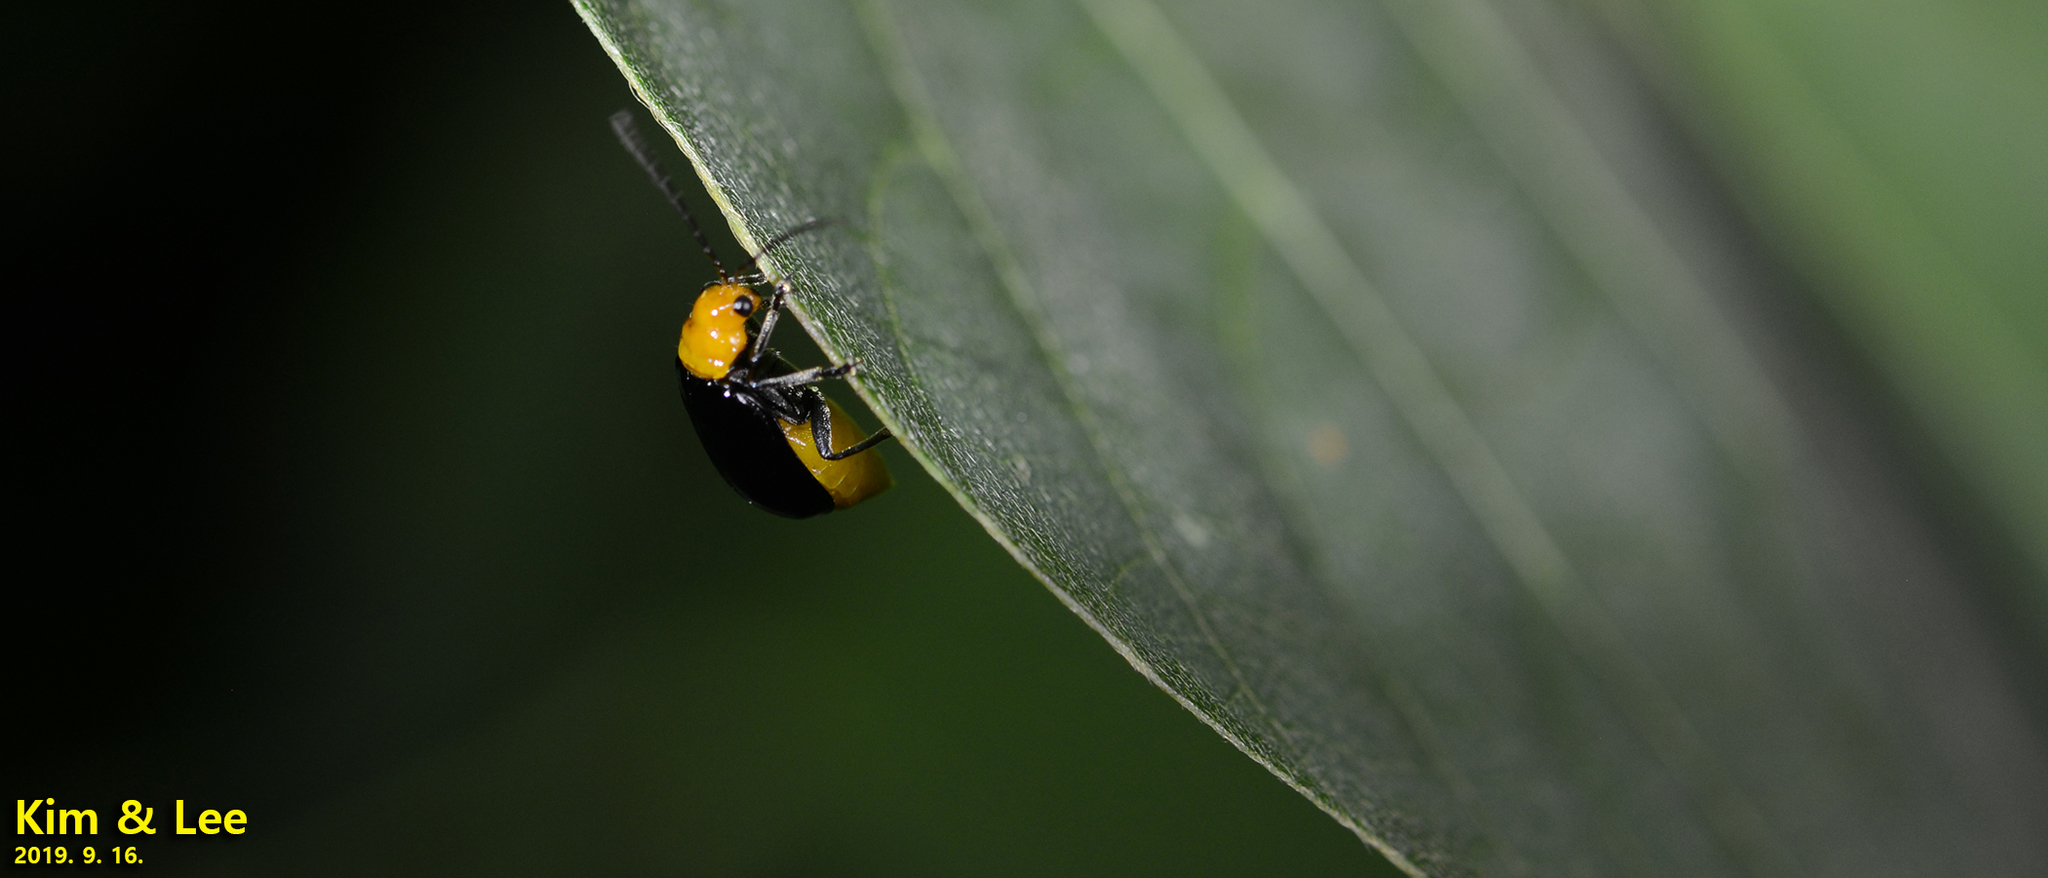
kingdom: Animalia
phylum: Arthropoda
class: Insecta
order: Coleoptera
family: Chrysomelidae
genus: Aulacophora
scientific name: Aulacophora nigripennis
